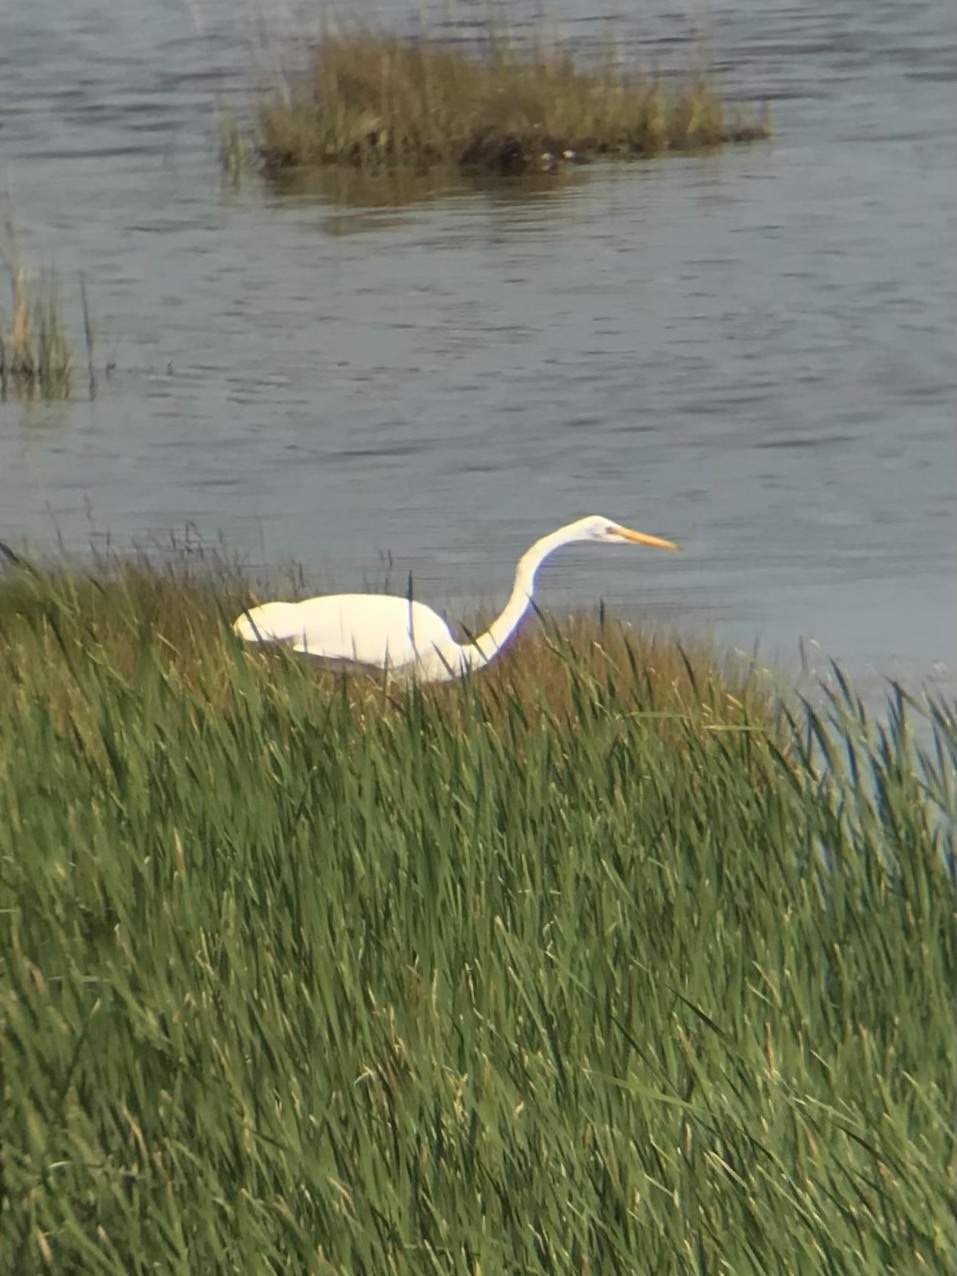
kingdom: Animalia
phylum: Chordata
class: Aves
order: Pelecaniformes
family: Ardeidae
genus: Ardea
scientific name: Ardea alba
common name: Great egret
